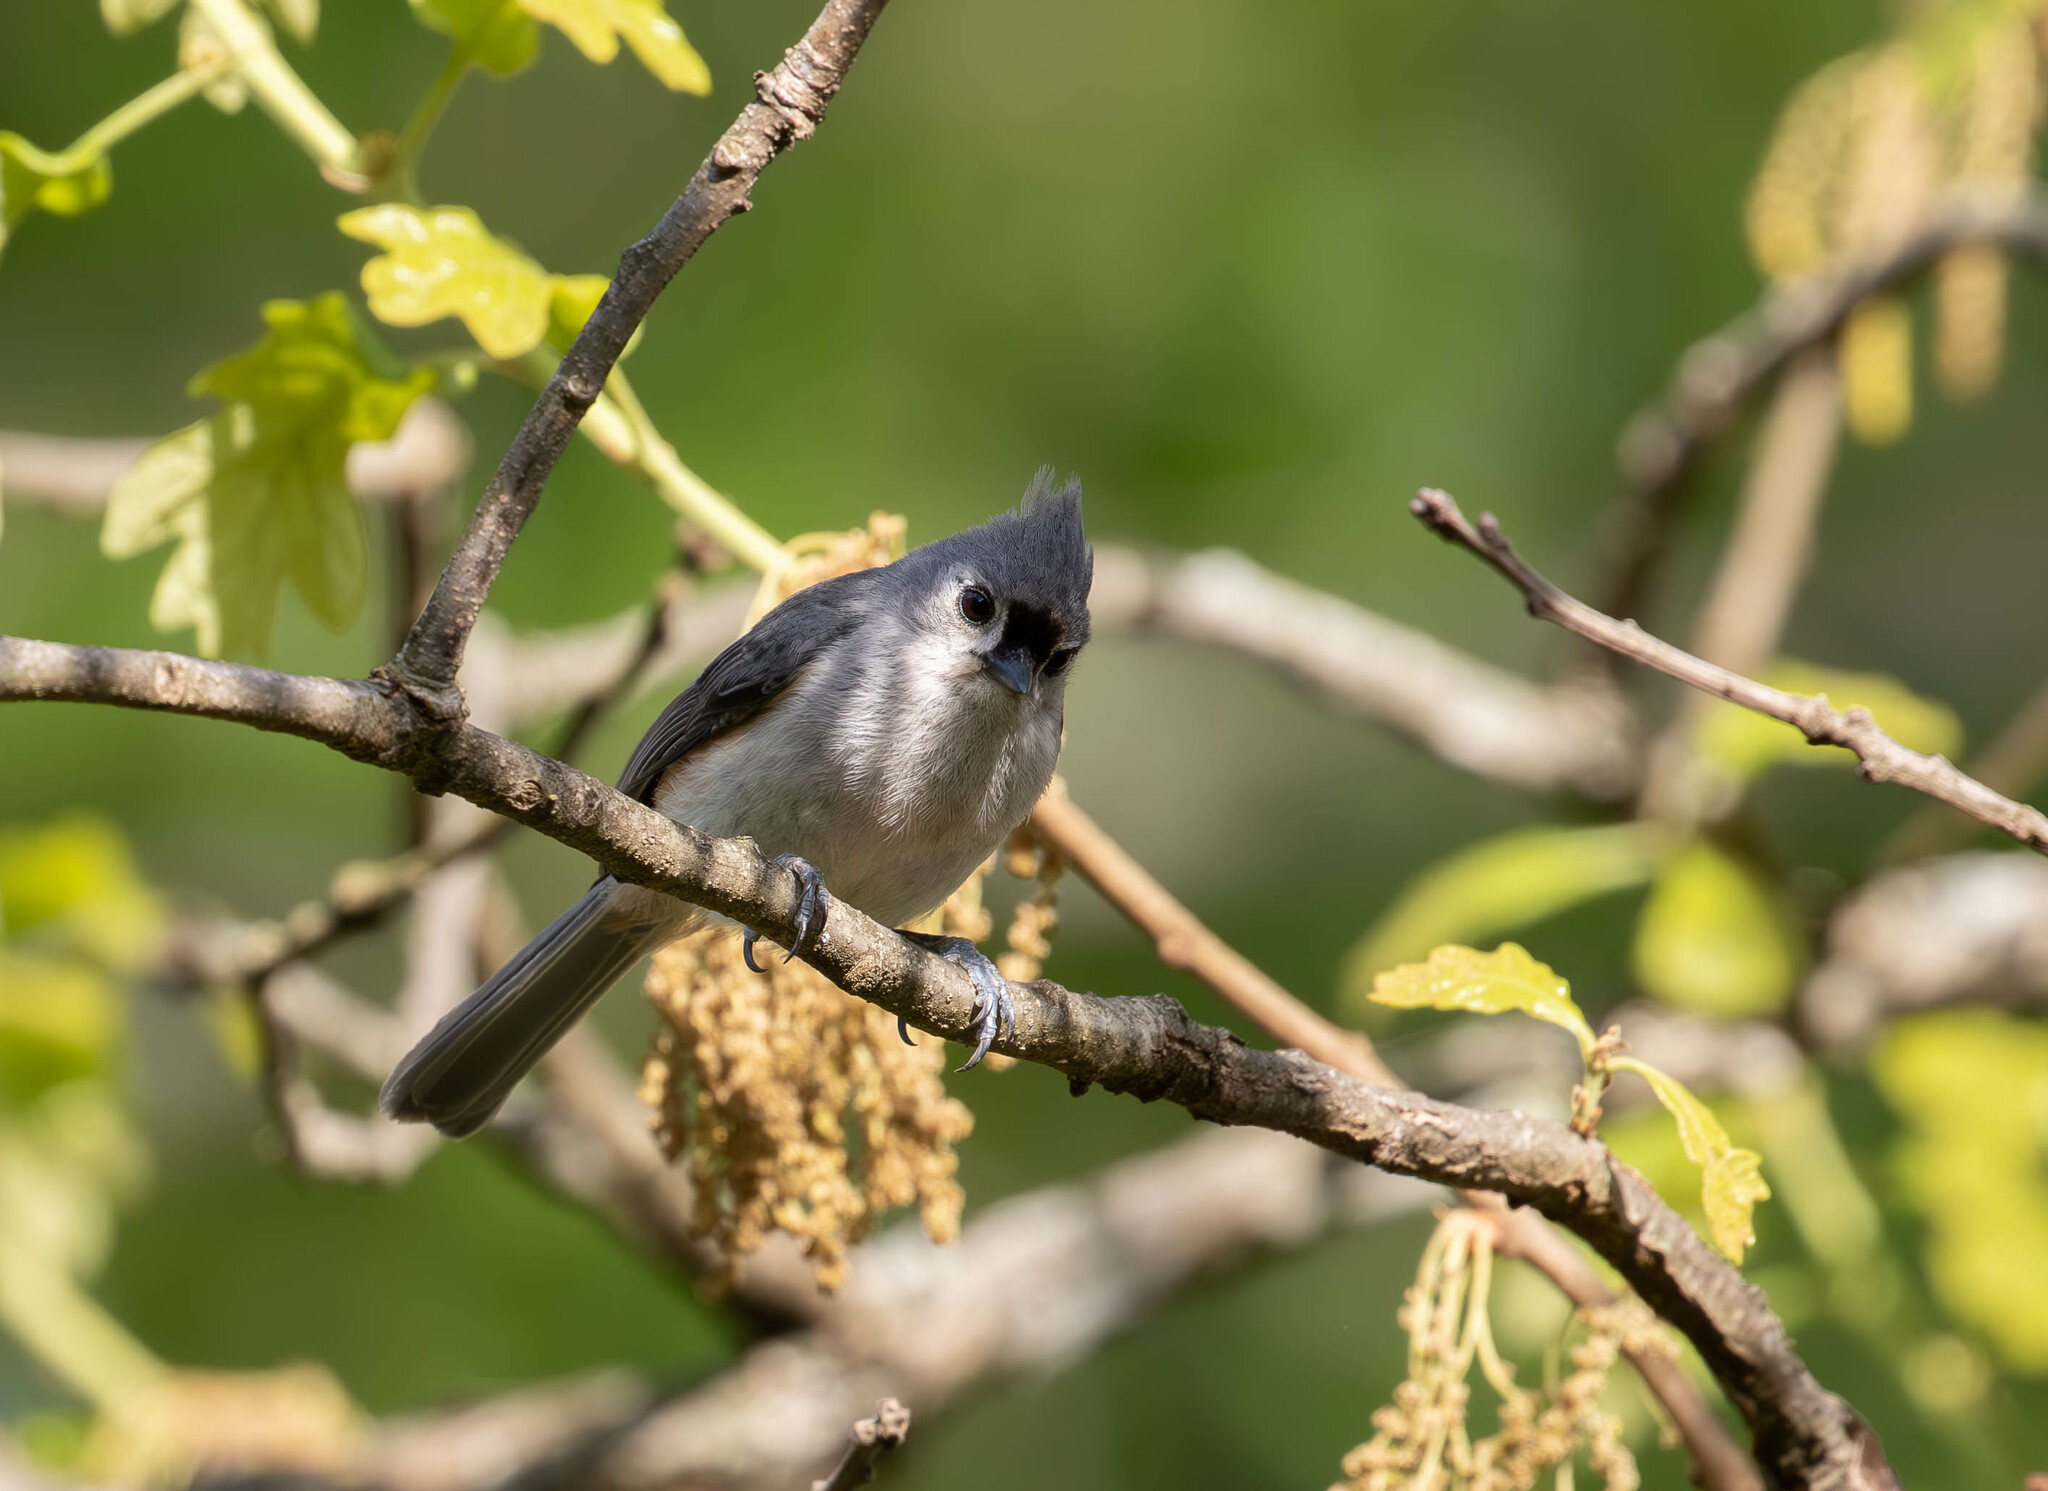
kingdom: Animalia
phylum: Chordata
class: Aves
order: Passeriformes
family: Paridae
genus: Baeolophus
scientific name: Baeolophus bicolor
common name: Tufted titmouse
